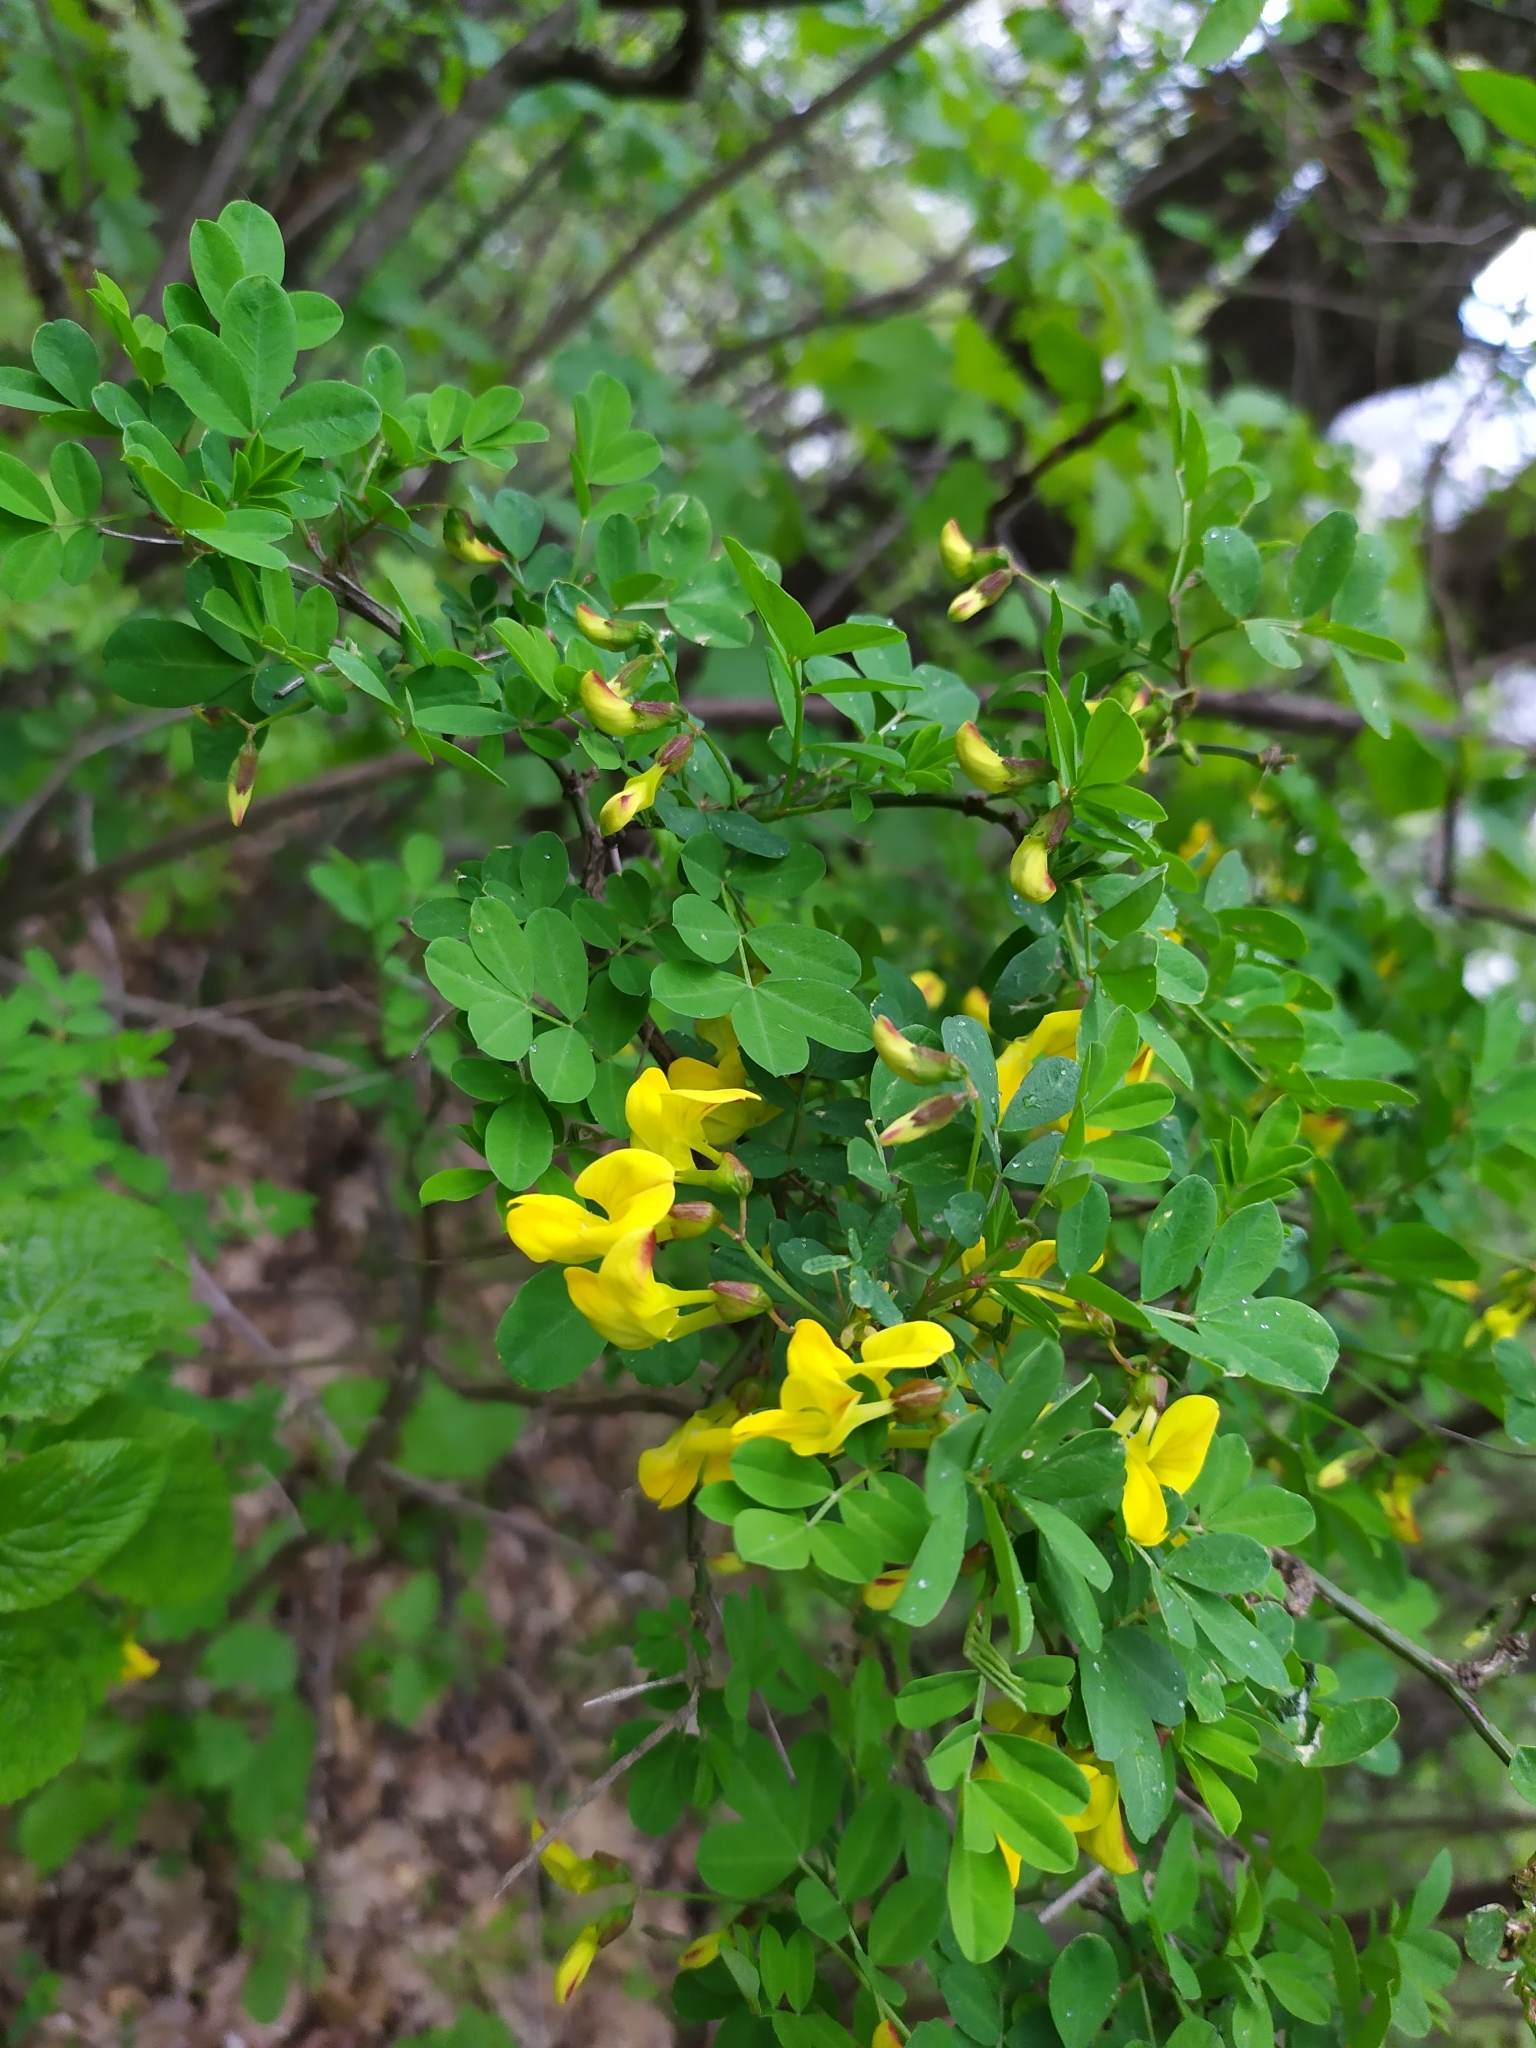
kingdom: Plantae
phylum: Tracheophyta
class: Magnoliopsida
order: Fabales
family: Fabaceae
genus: Hippocrepis
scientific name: Hippocrepis emerus
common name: Scorpion senna
